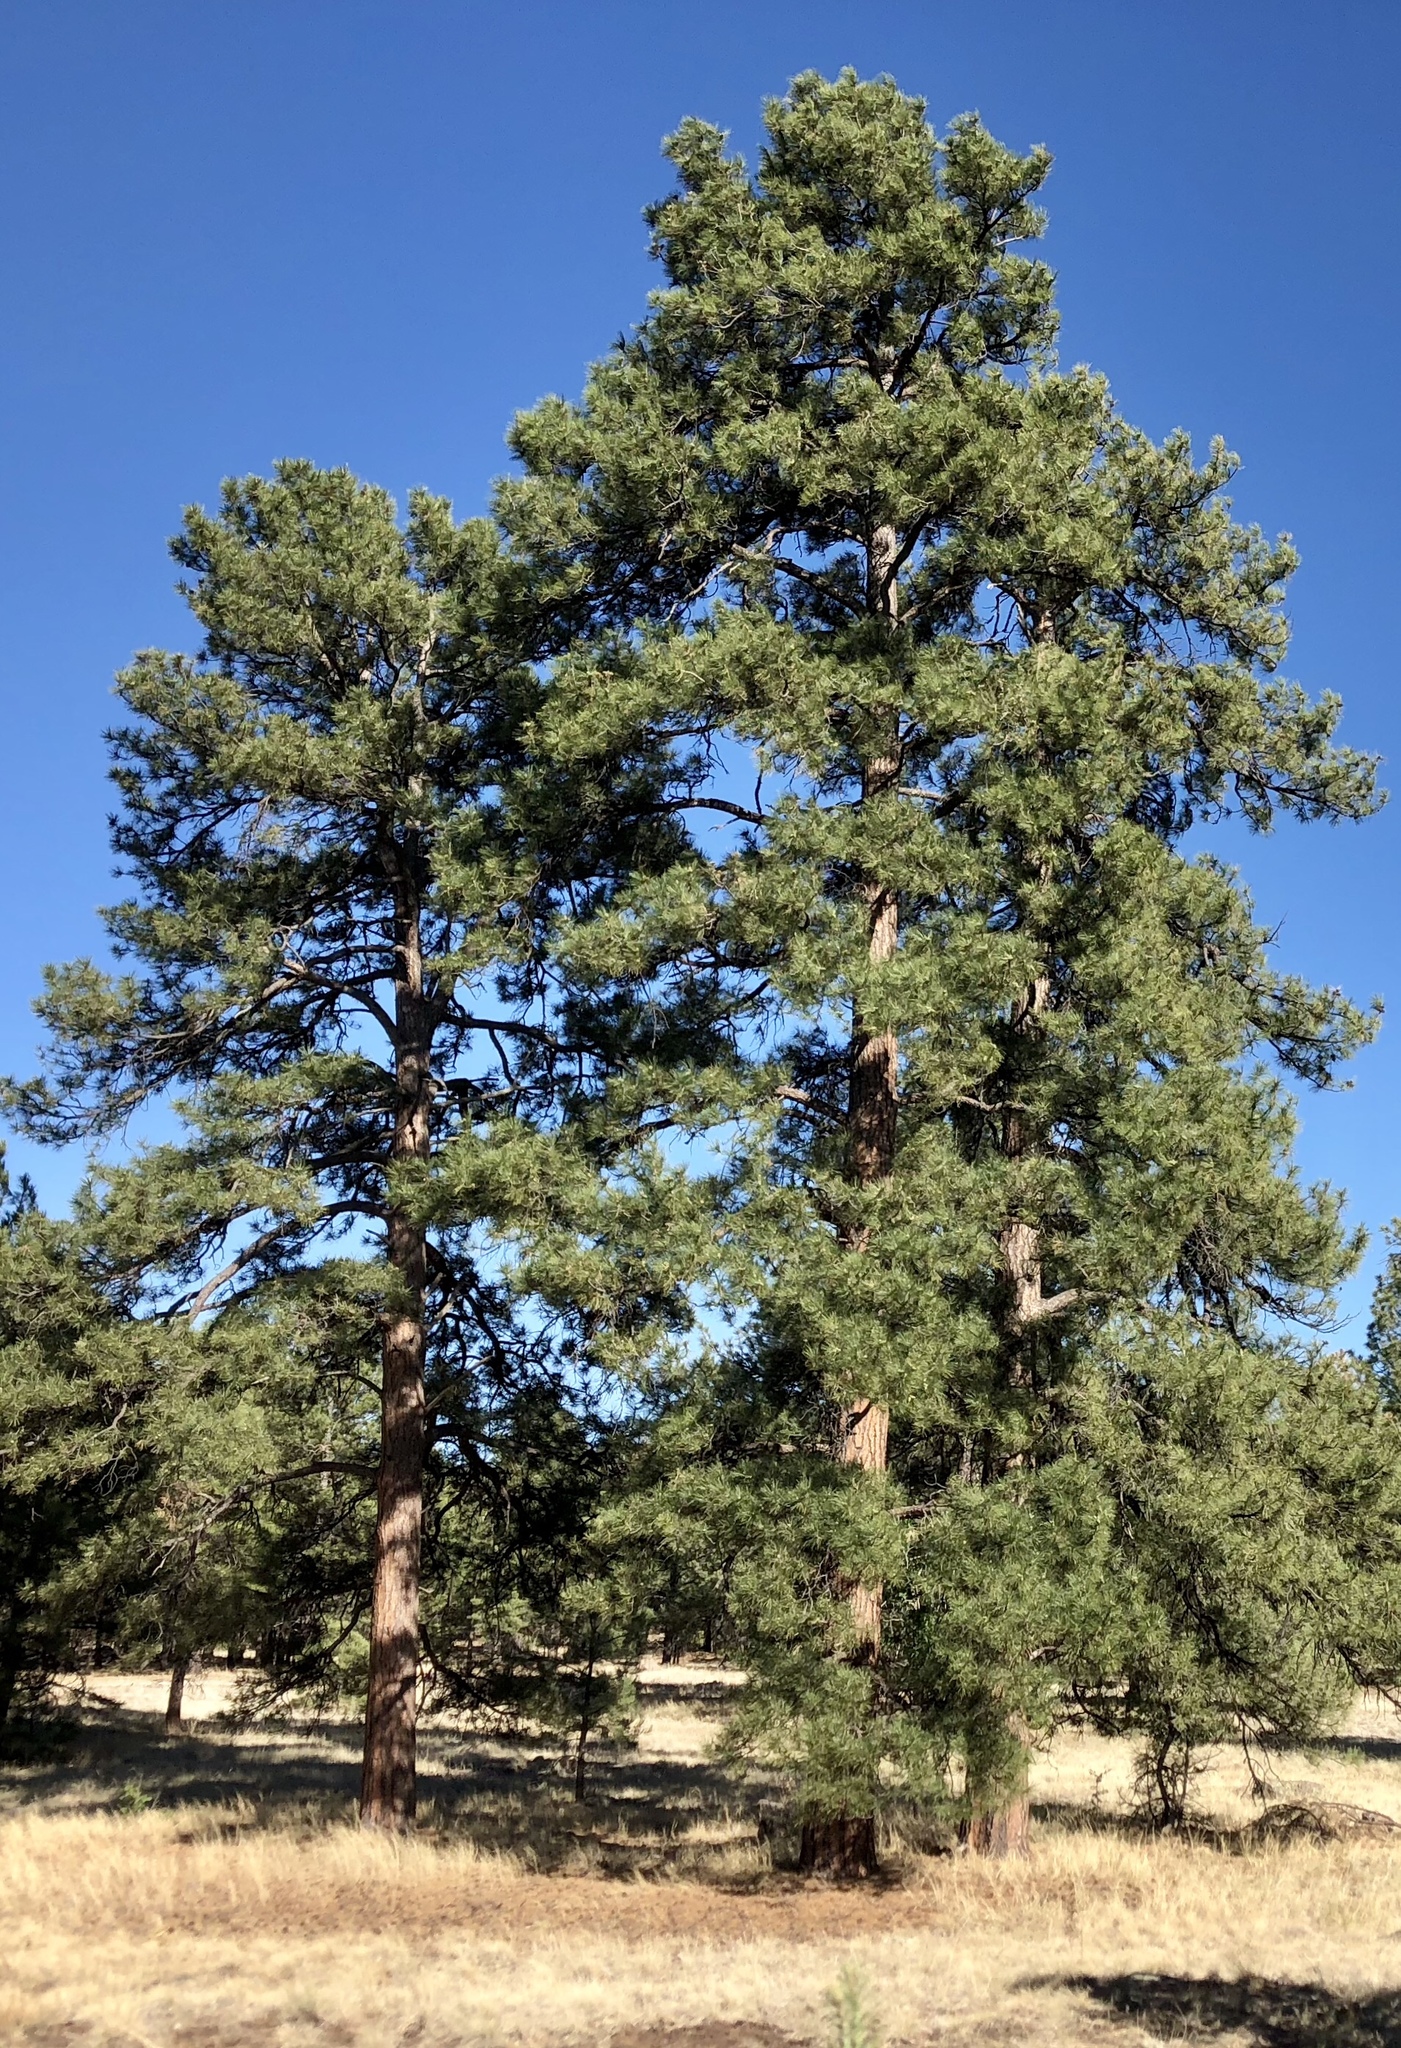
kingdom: Plantae
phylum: Tracheophyta
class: Pinopsida
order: Pinales
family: Pinaceae
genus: Pinus
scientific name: Pinus ponderosa
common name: Western yellow-pine
